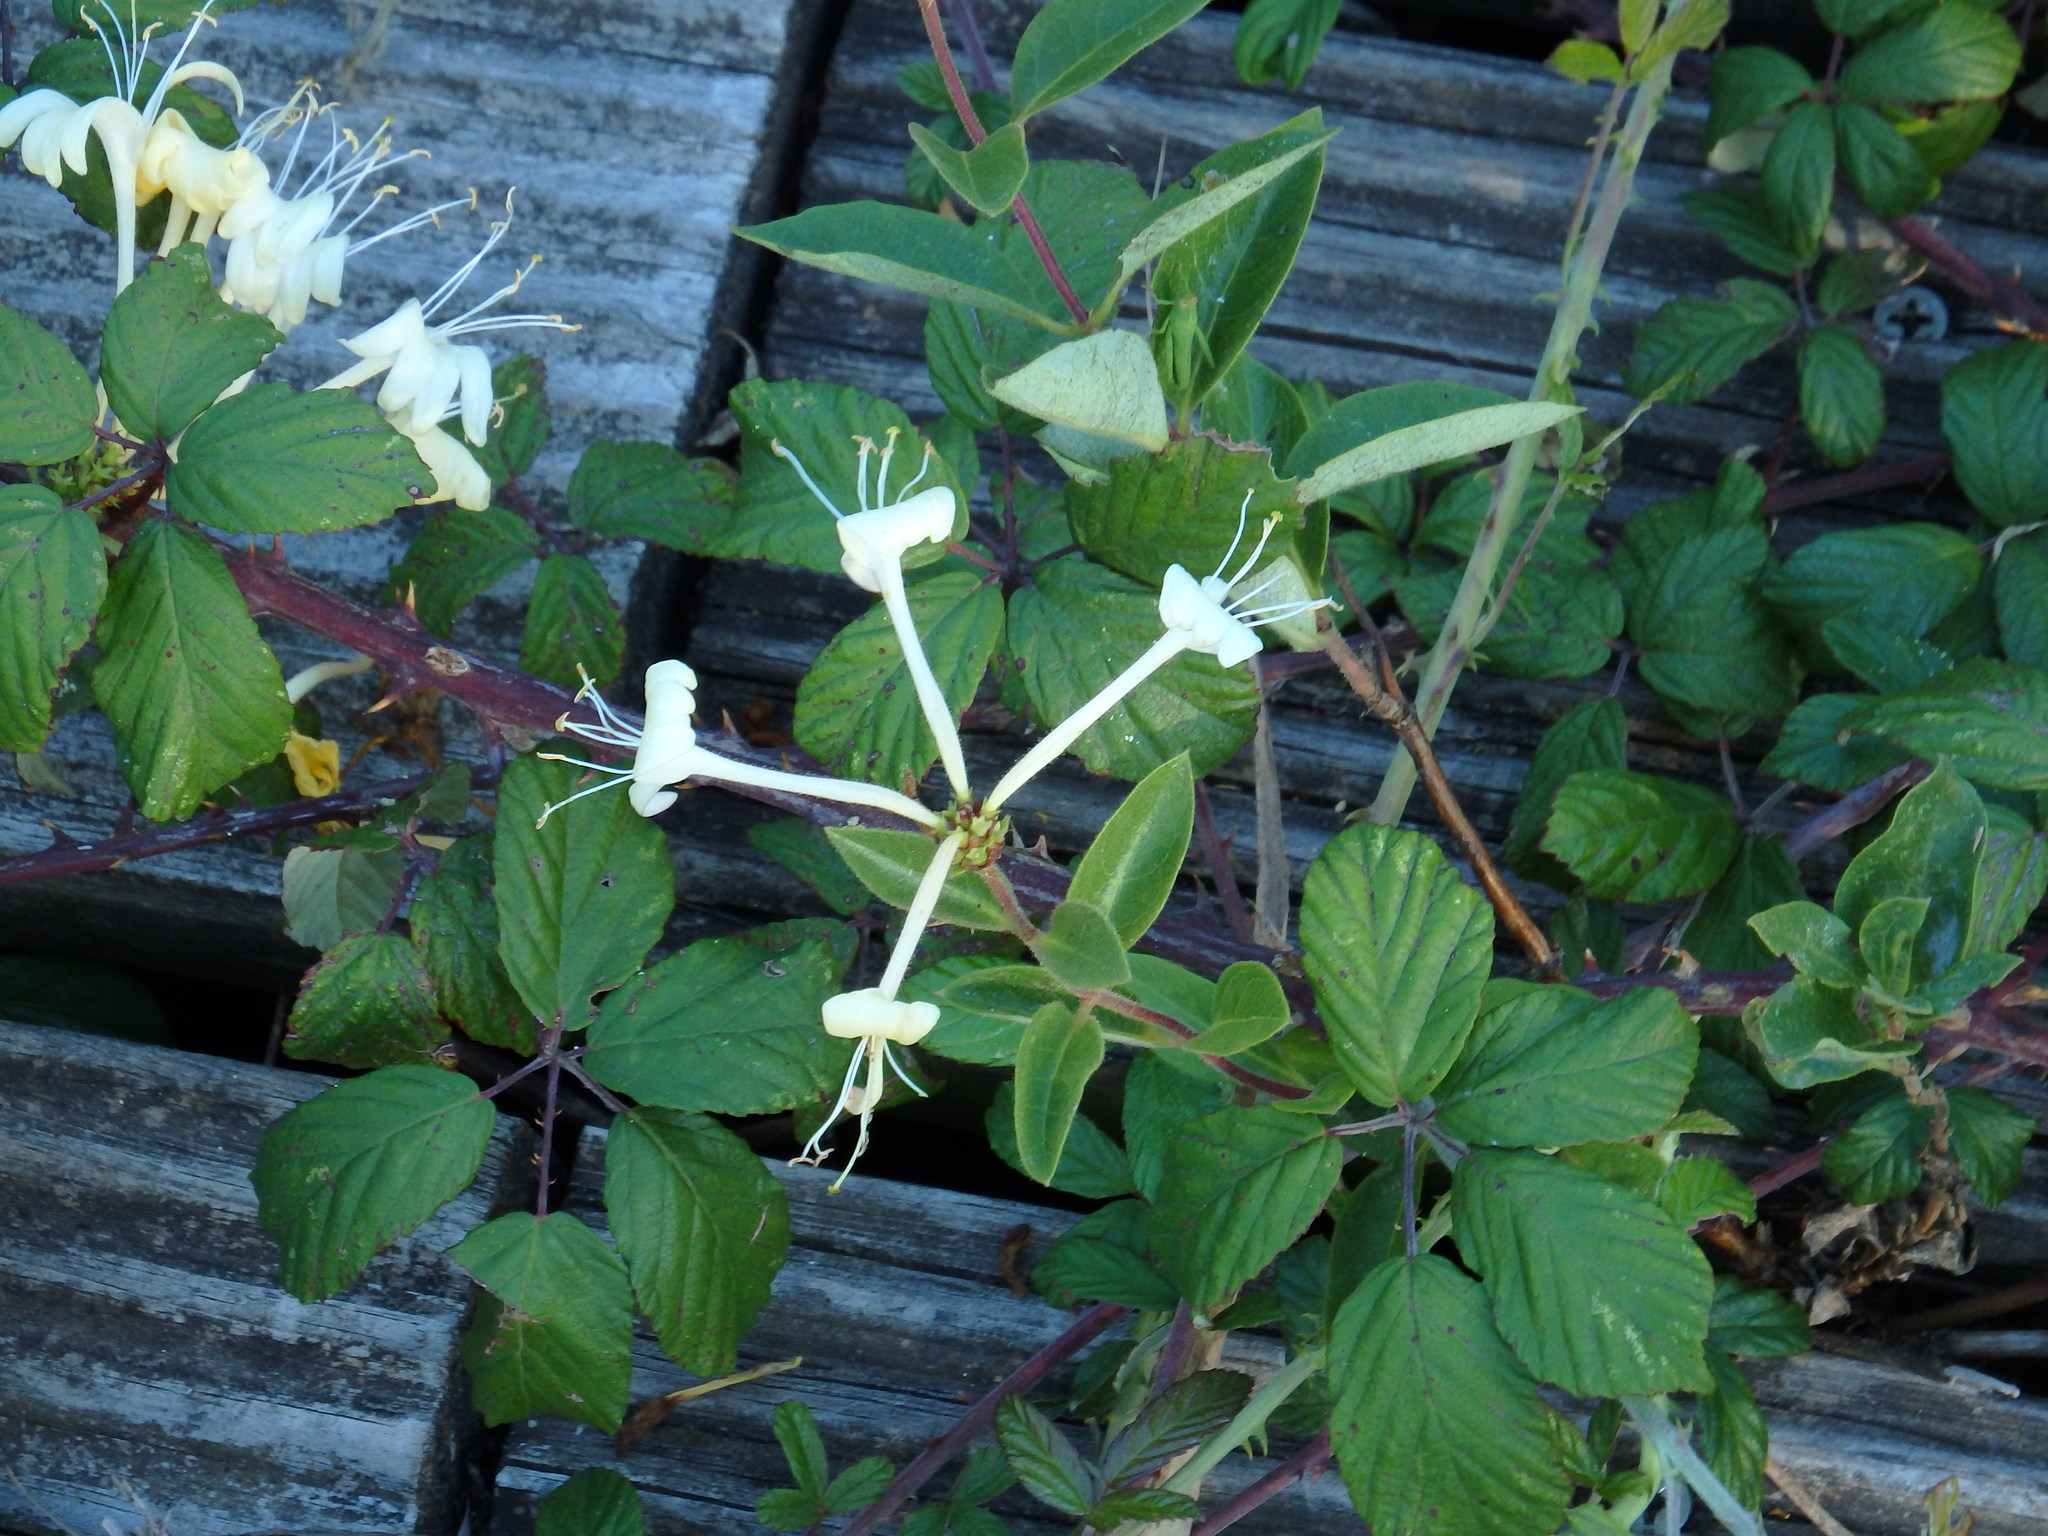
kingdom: Plantae
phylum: Tracheophyta
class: Magnoliopsida
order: Dipsacales
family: Caprifoliaceae
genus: Lonicera
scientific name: Lonicera periclymenum
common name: European honeysuckle
